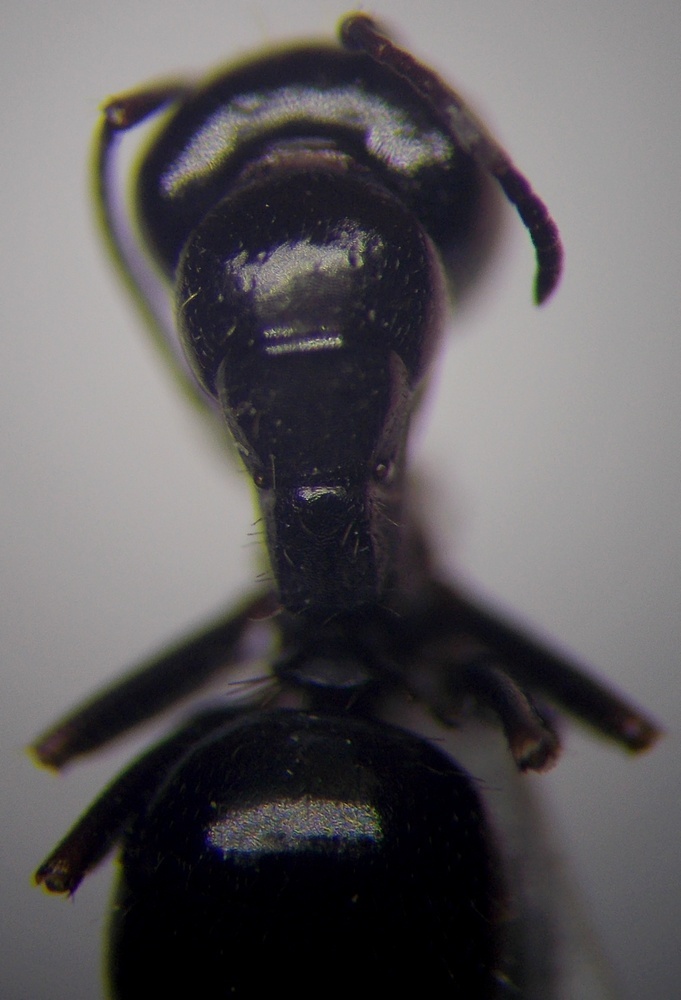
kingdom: Animalia
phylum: Arthropoda
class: Insecta
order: Hymenoptera
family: Formicidae
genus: Camponotus
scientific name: Camponotus piceus
